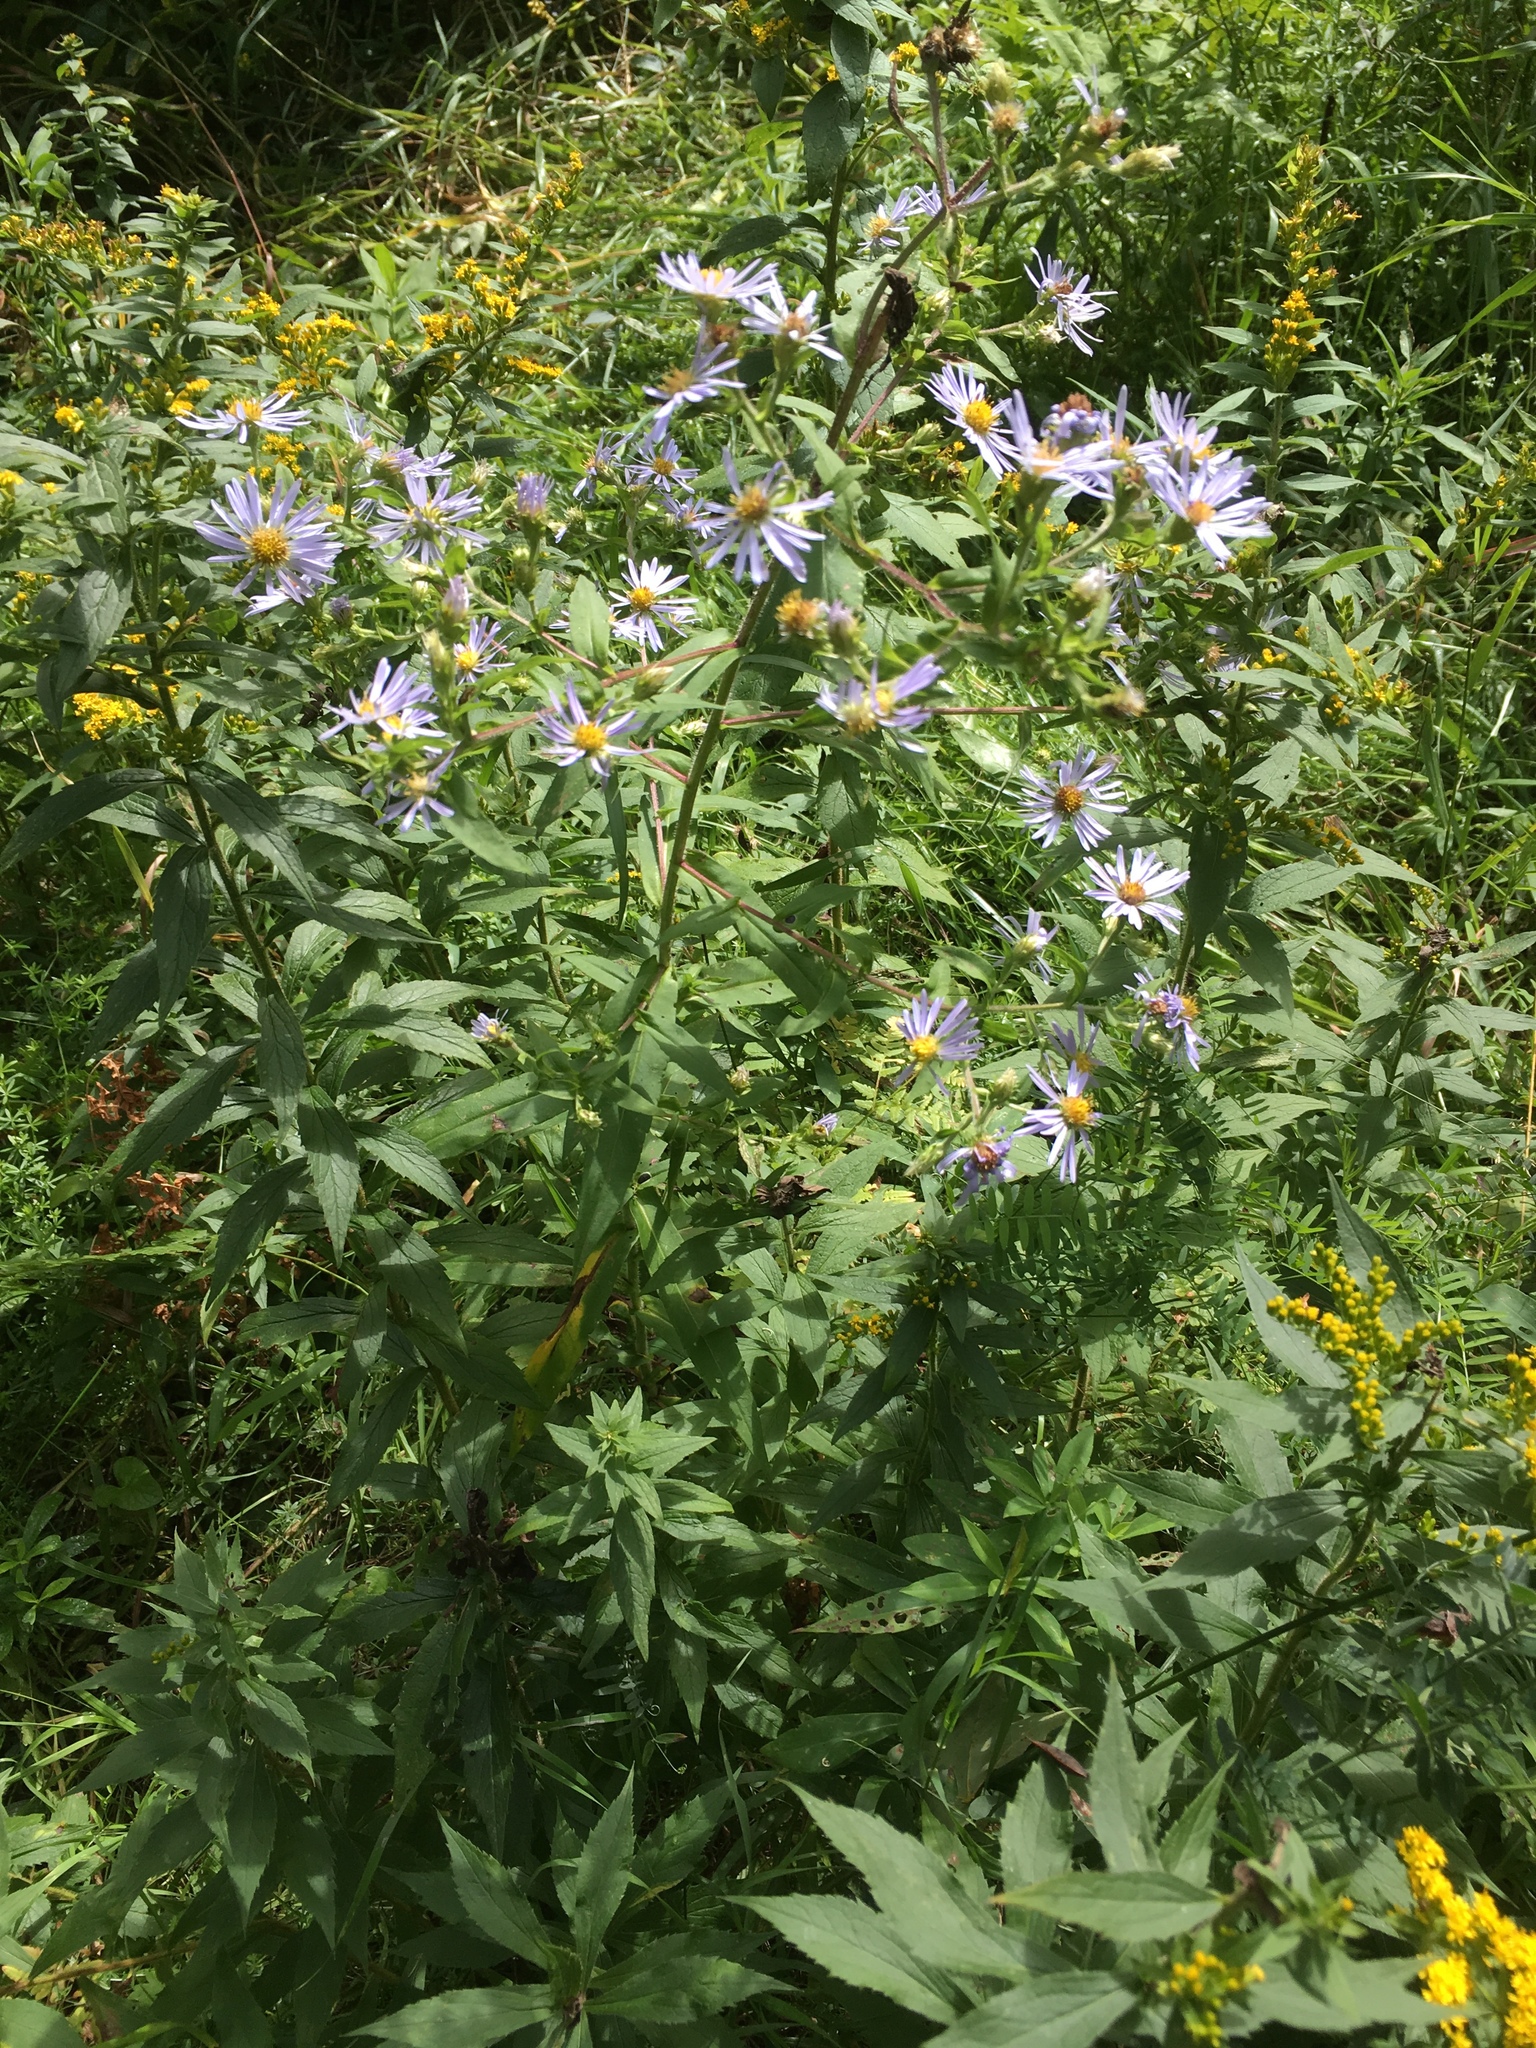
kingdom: Plantae
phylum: Tracheophyta
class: Magnoliopsida
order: Asterales
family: Asteraceae
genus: Symphyotrichum
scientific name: Symphyotrichum puniceum
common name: Bog aster
